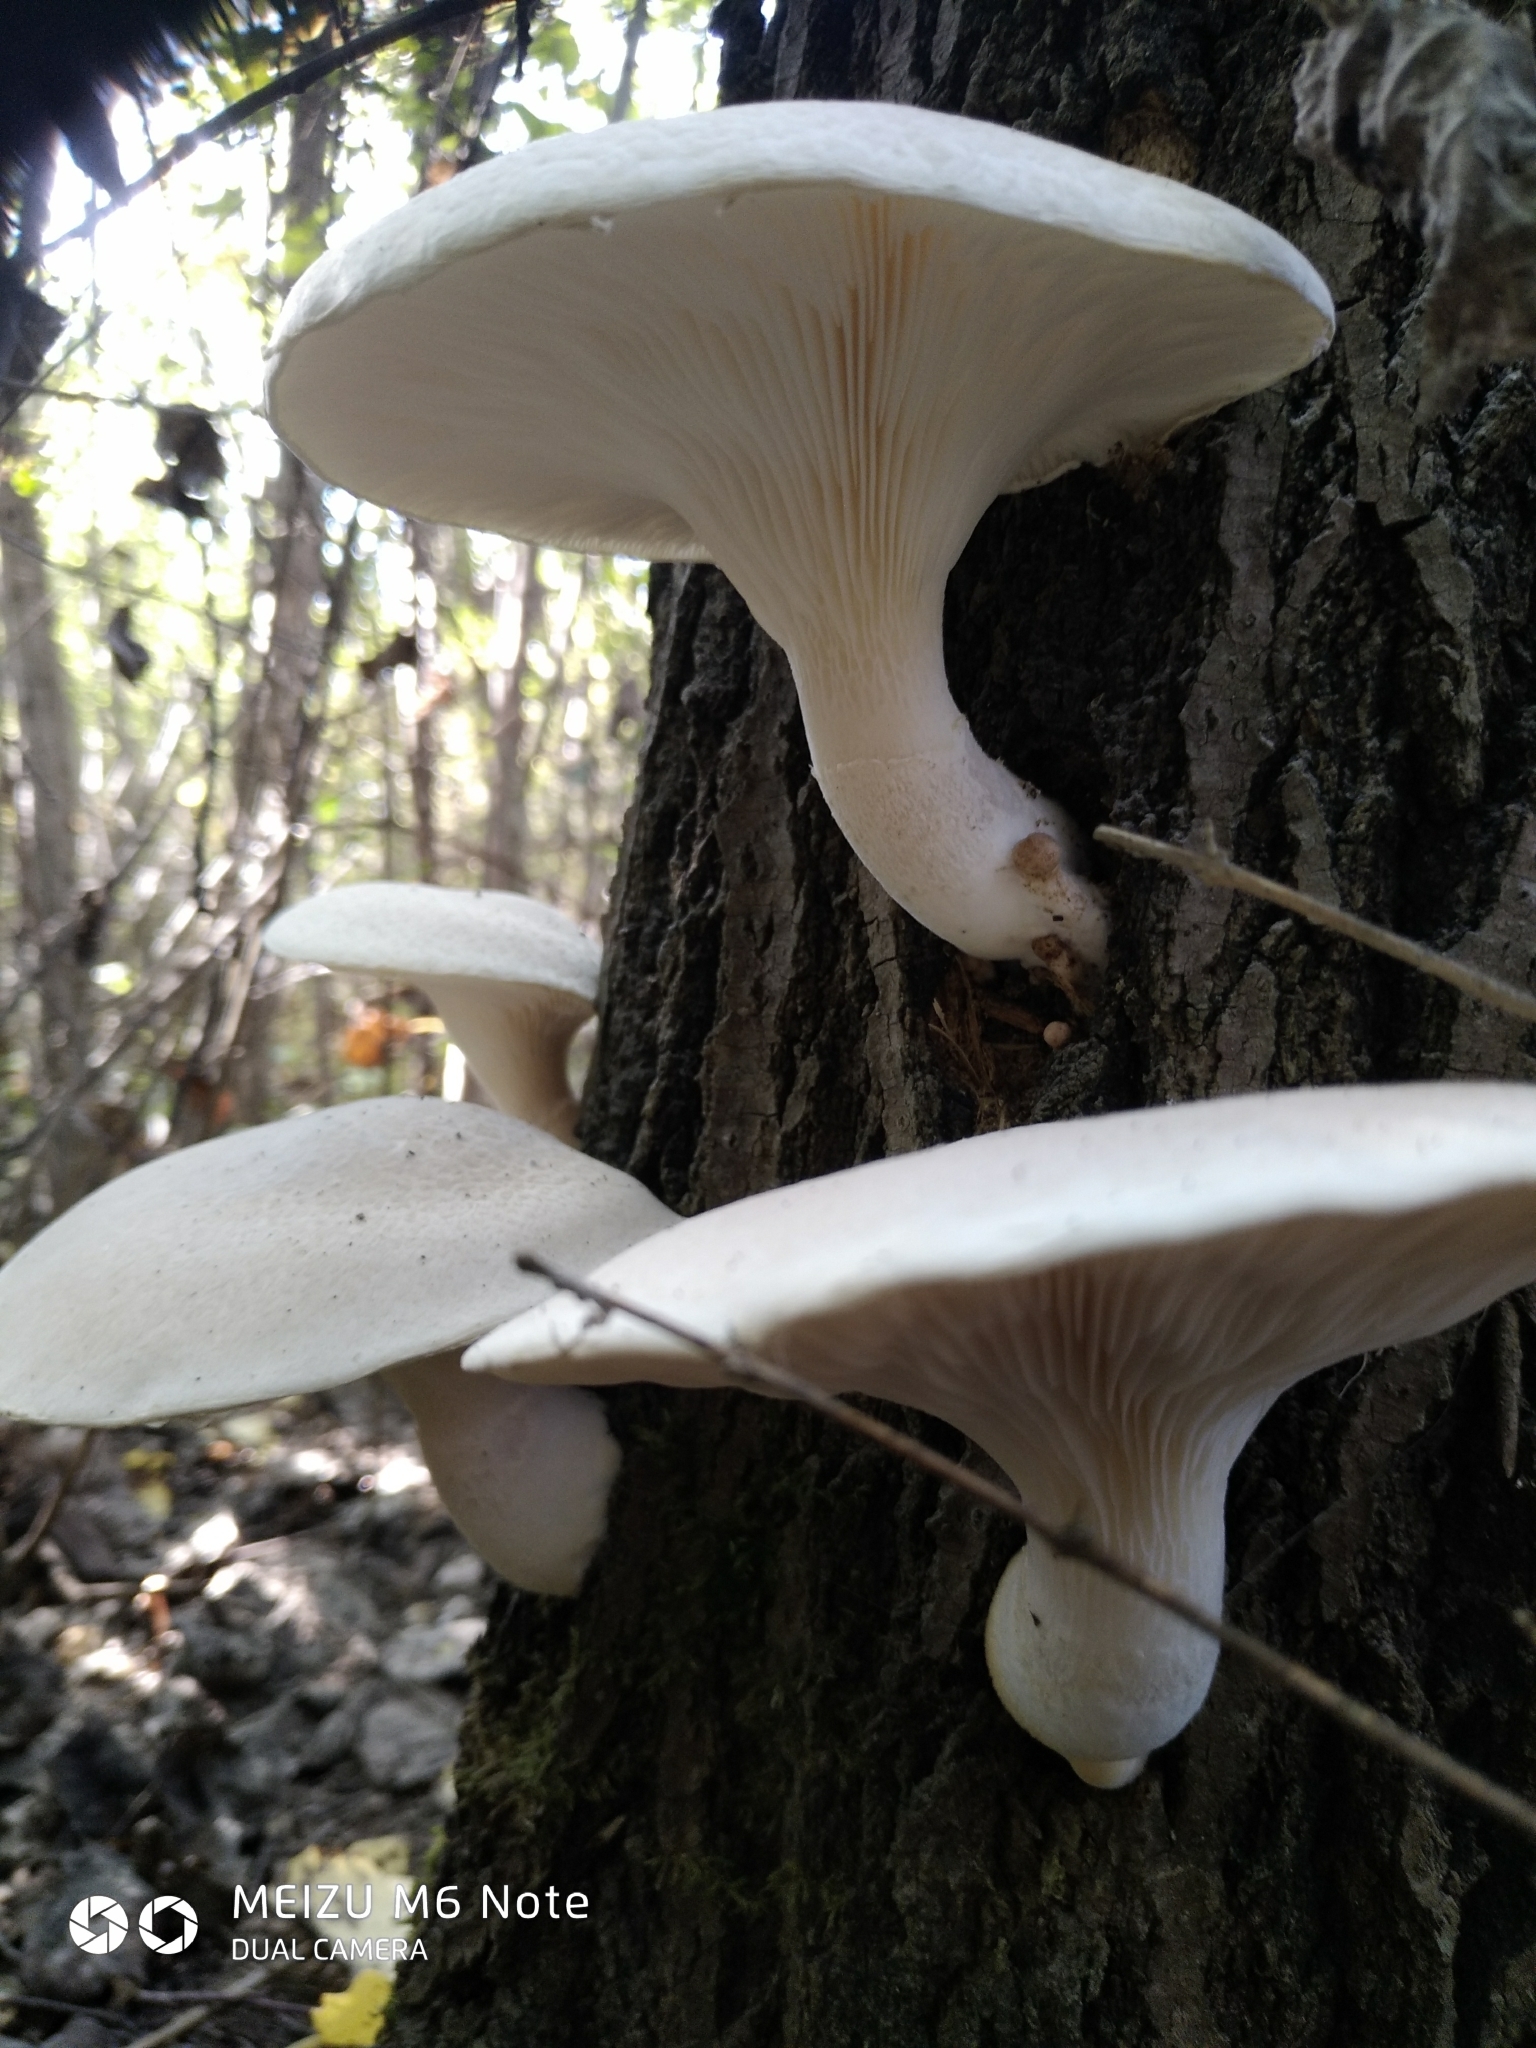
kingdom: Fungi
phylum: Basidiomycota
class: Agaricomycetes
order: Agaricales
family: Pleurotaceae
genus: Pleurotus
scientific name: Pleurotus dryinus
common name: Veiled oyster
